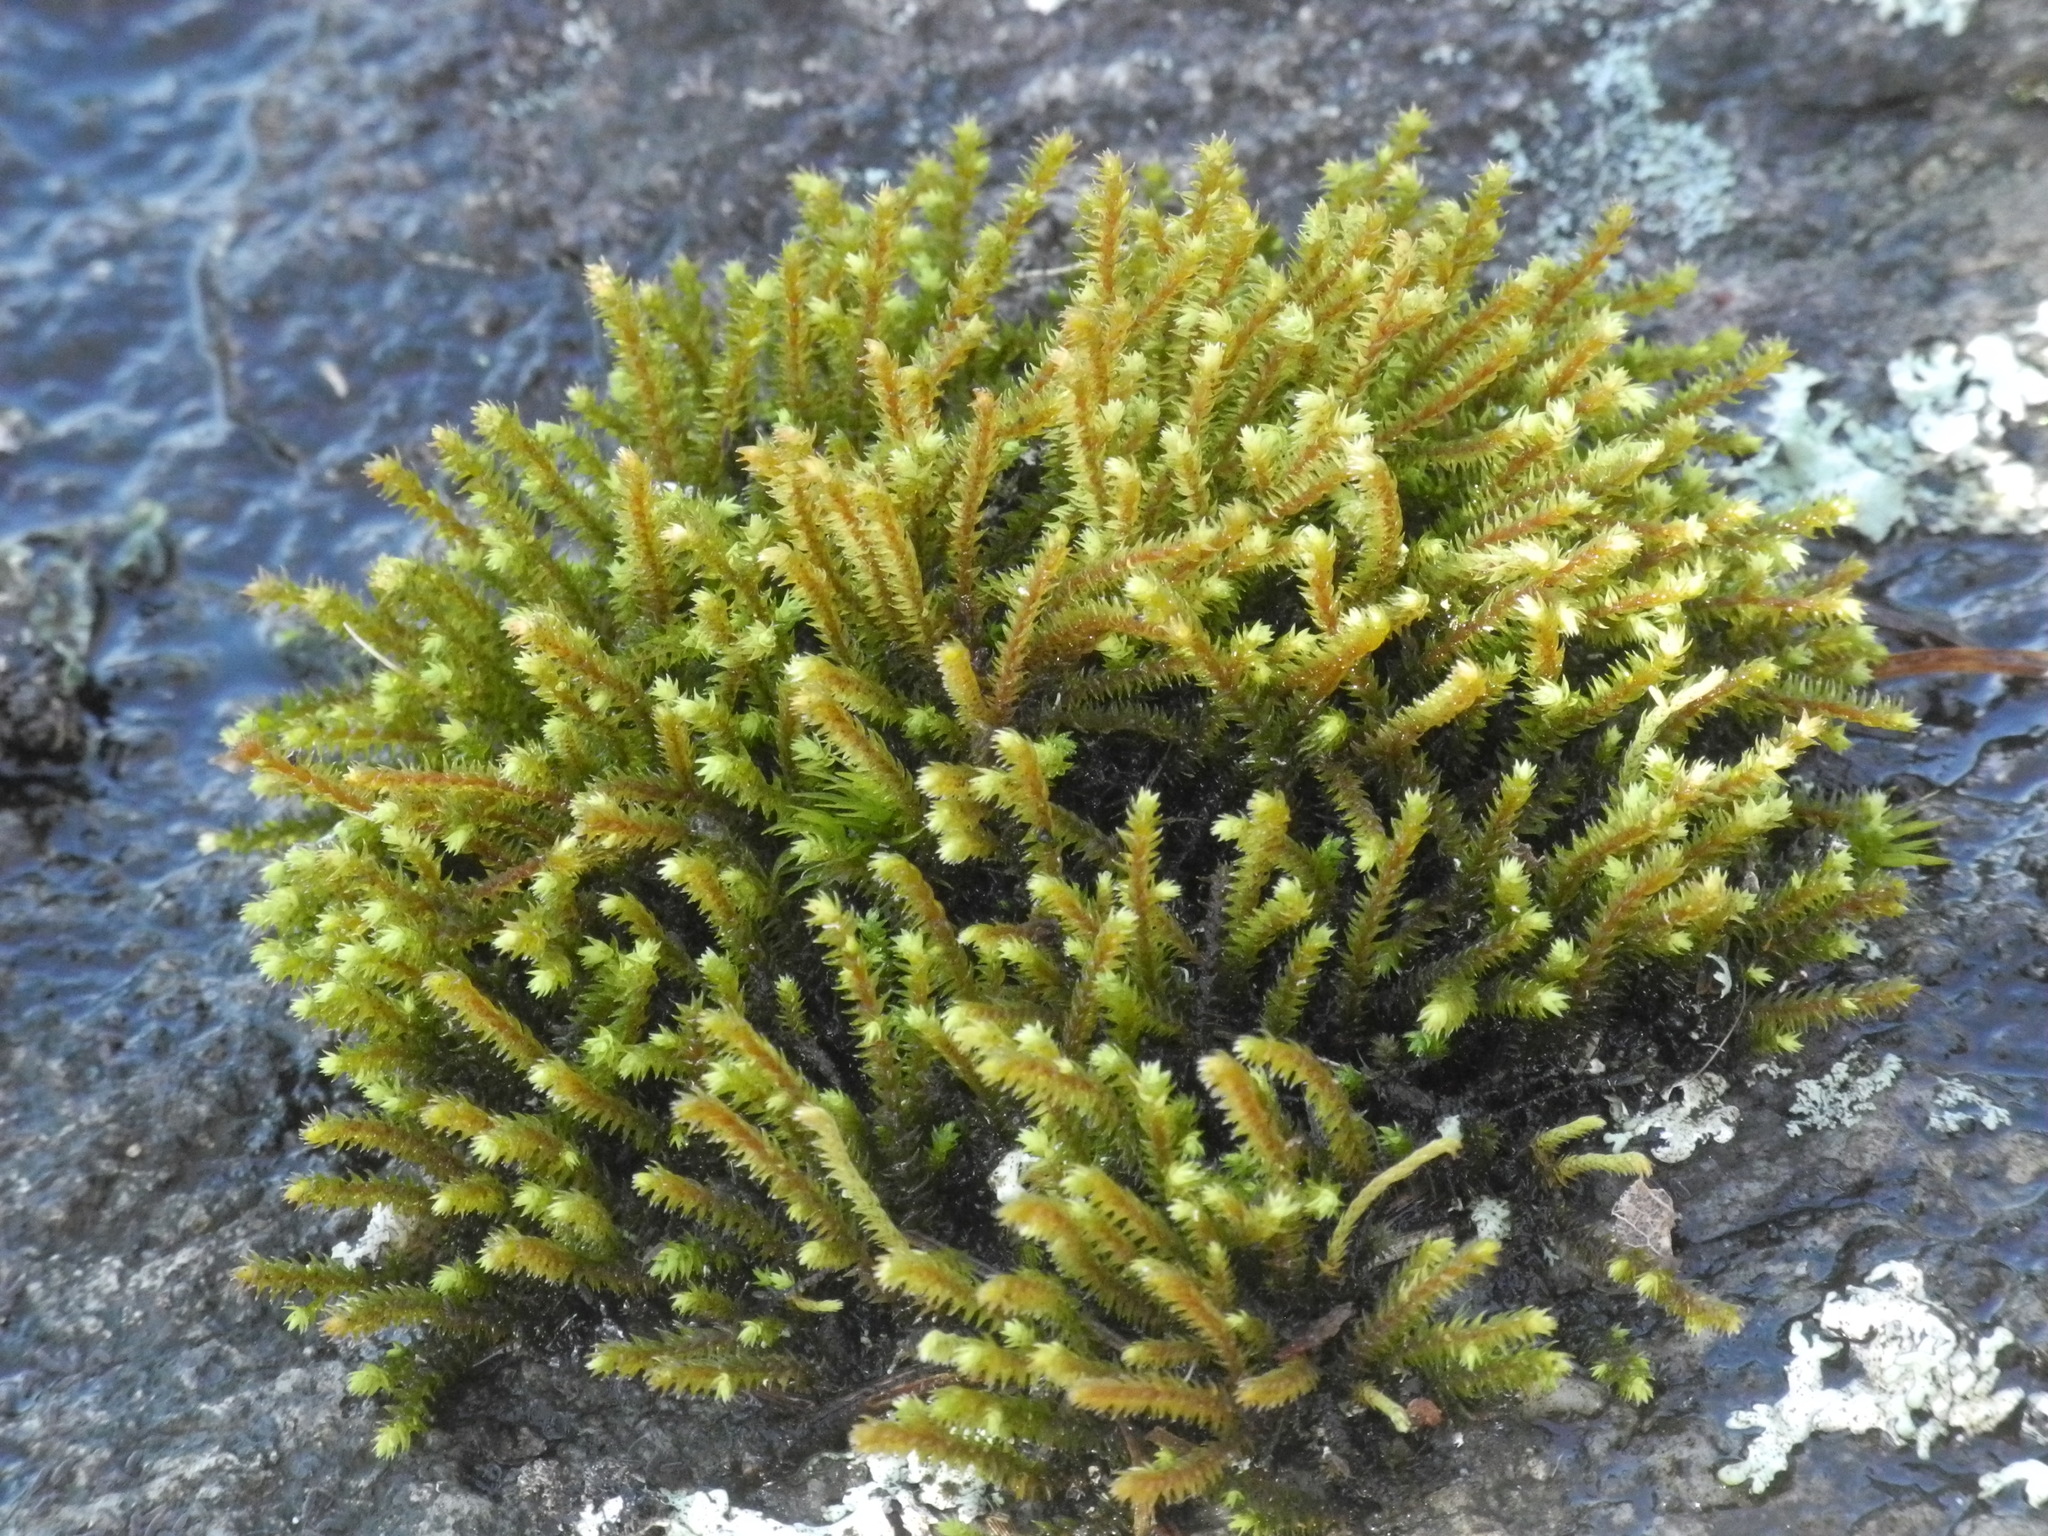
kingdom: Plantae
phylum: Bryophyta
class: Bryopsida
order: Hedwigiales
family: Hedwigiaceae
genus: Hedwigia
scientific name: Hedwigia ciliata
